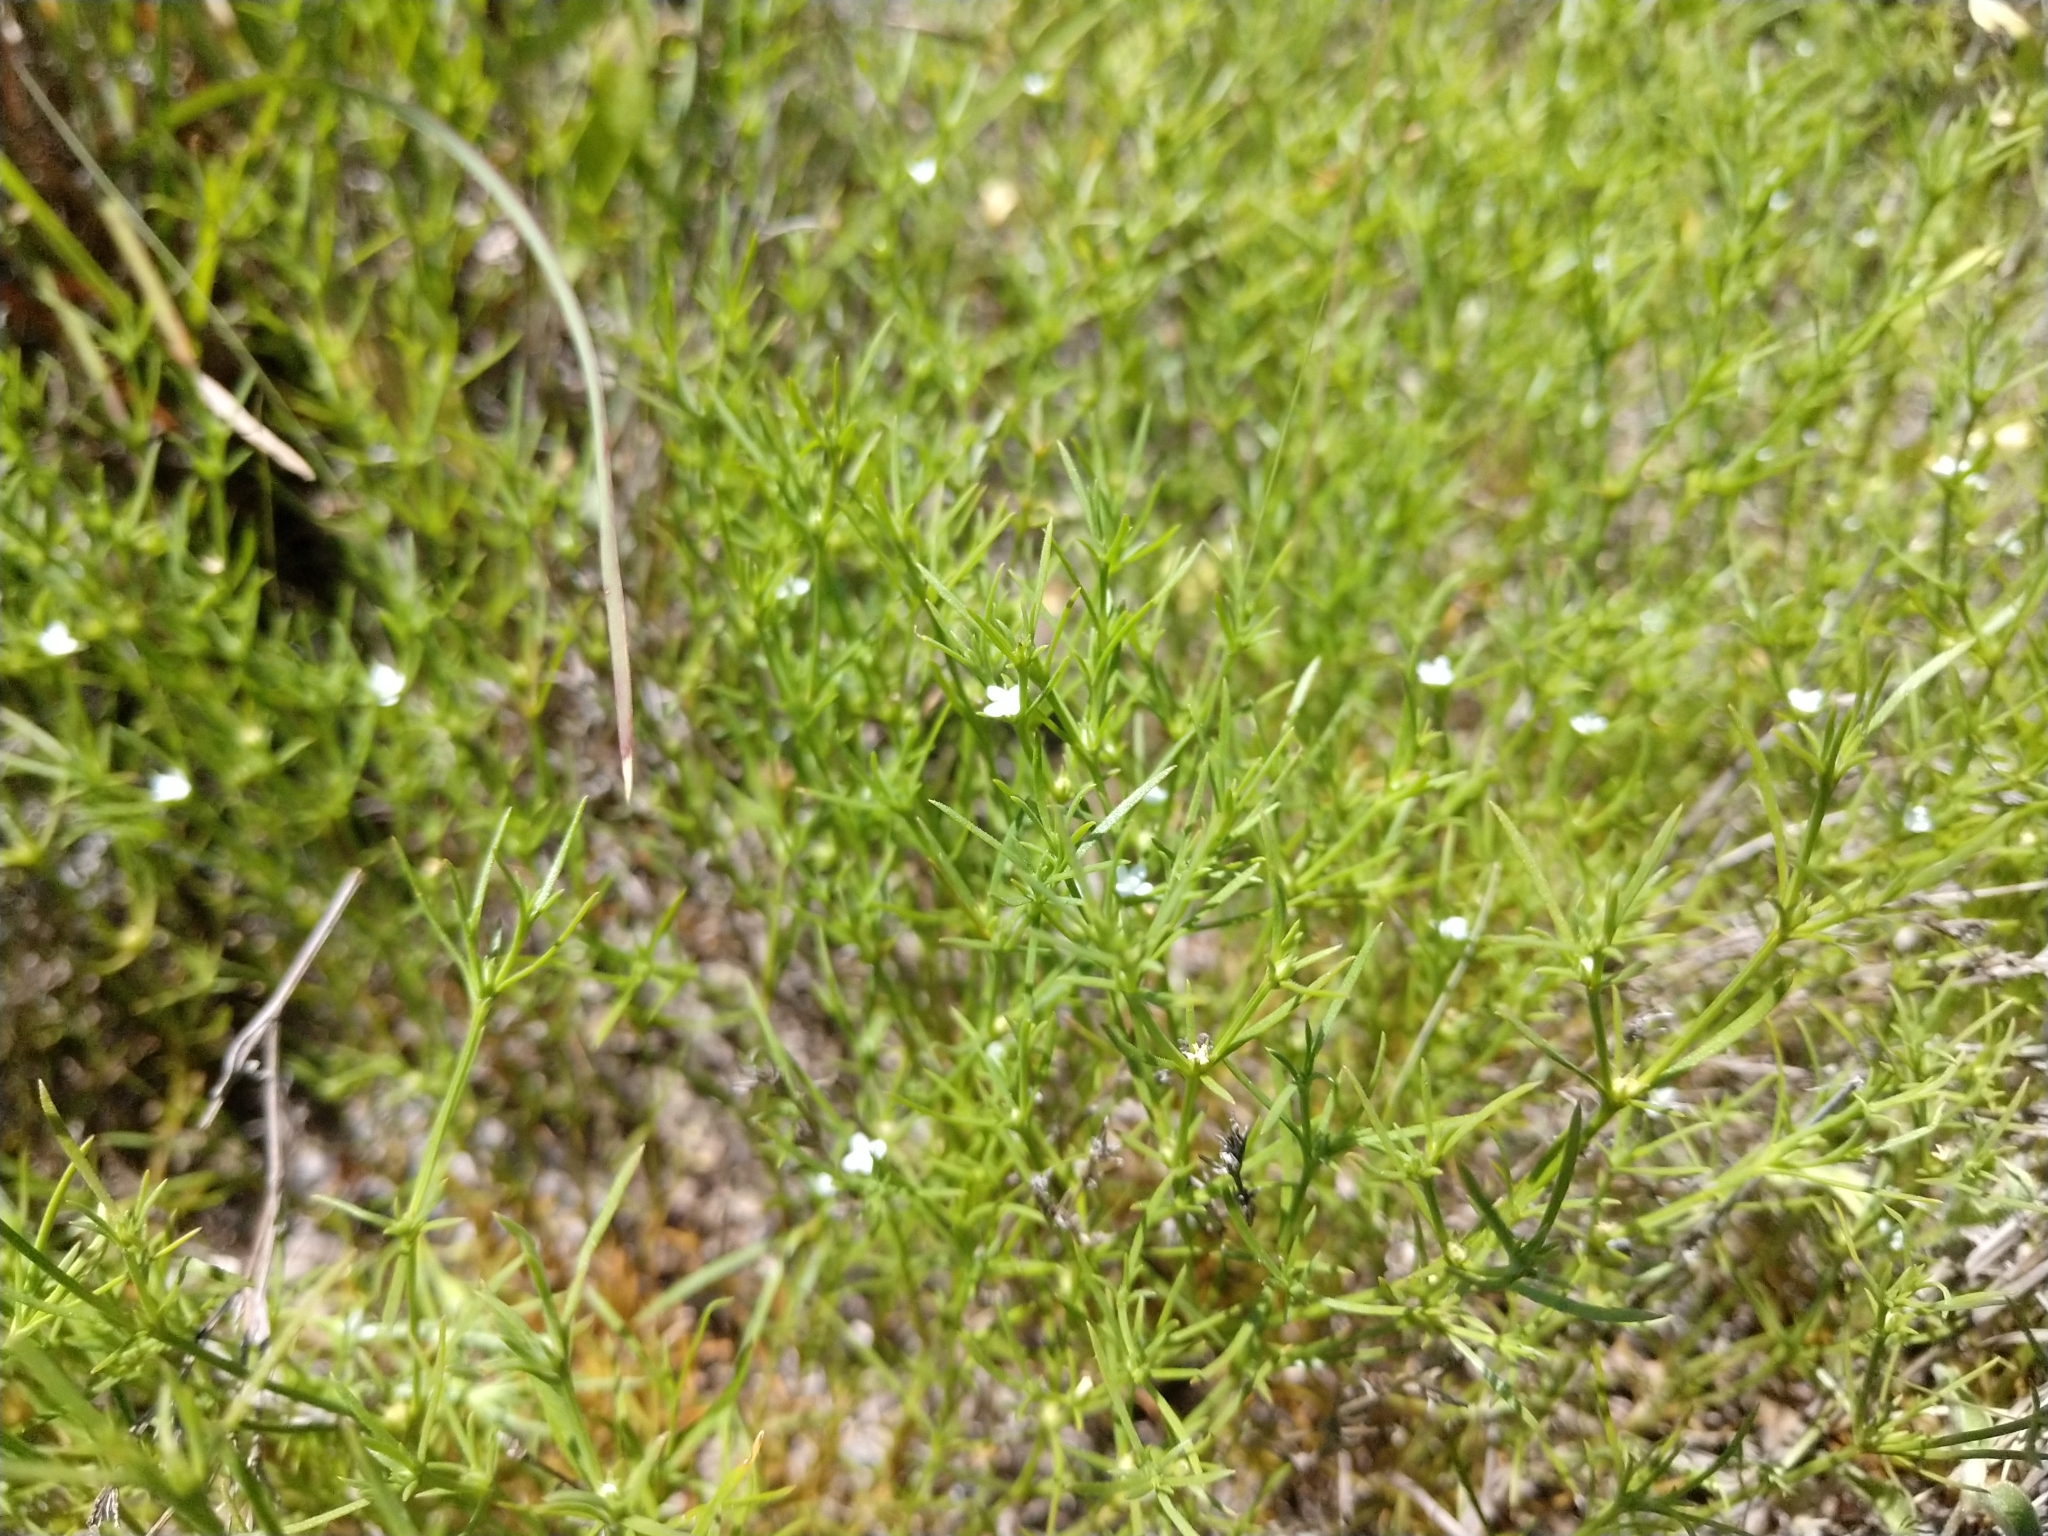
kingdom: Plantae
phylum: Tracheophyta
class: Magnoliopsida
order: Lamiales
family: Tetrachondraceae
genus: Polypremum
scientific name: Polypremum procumbens
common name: Juniper-leaf
